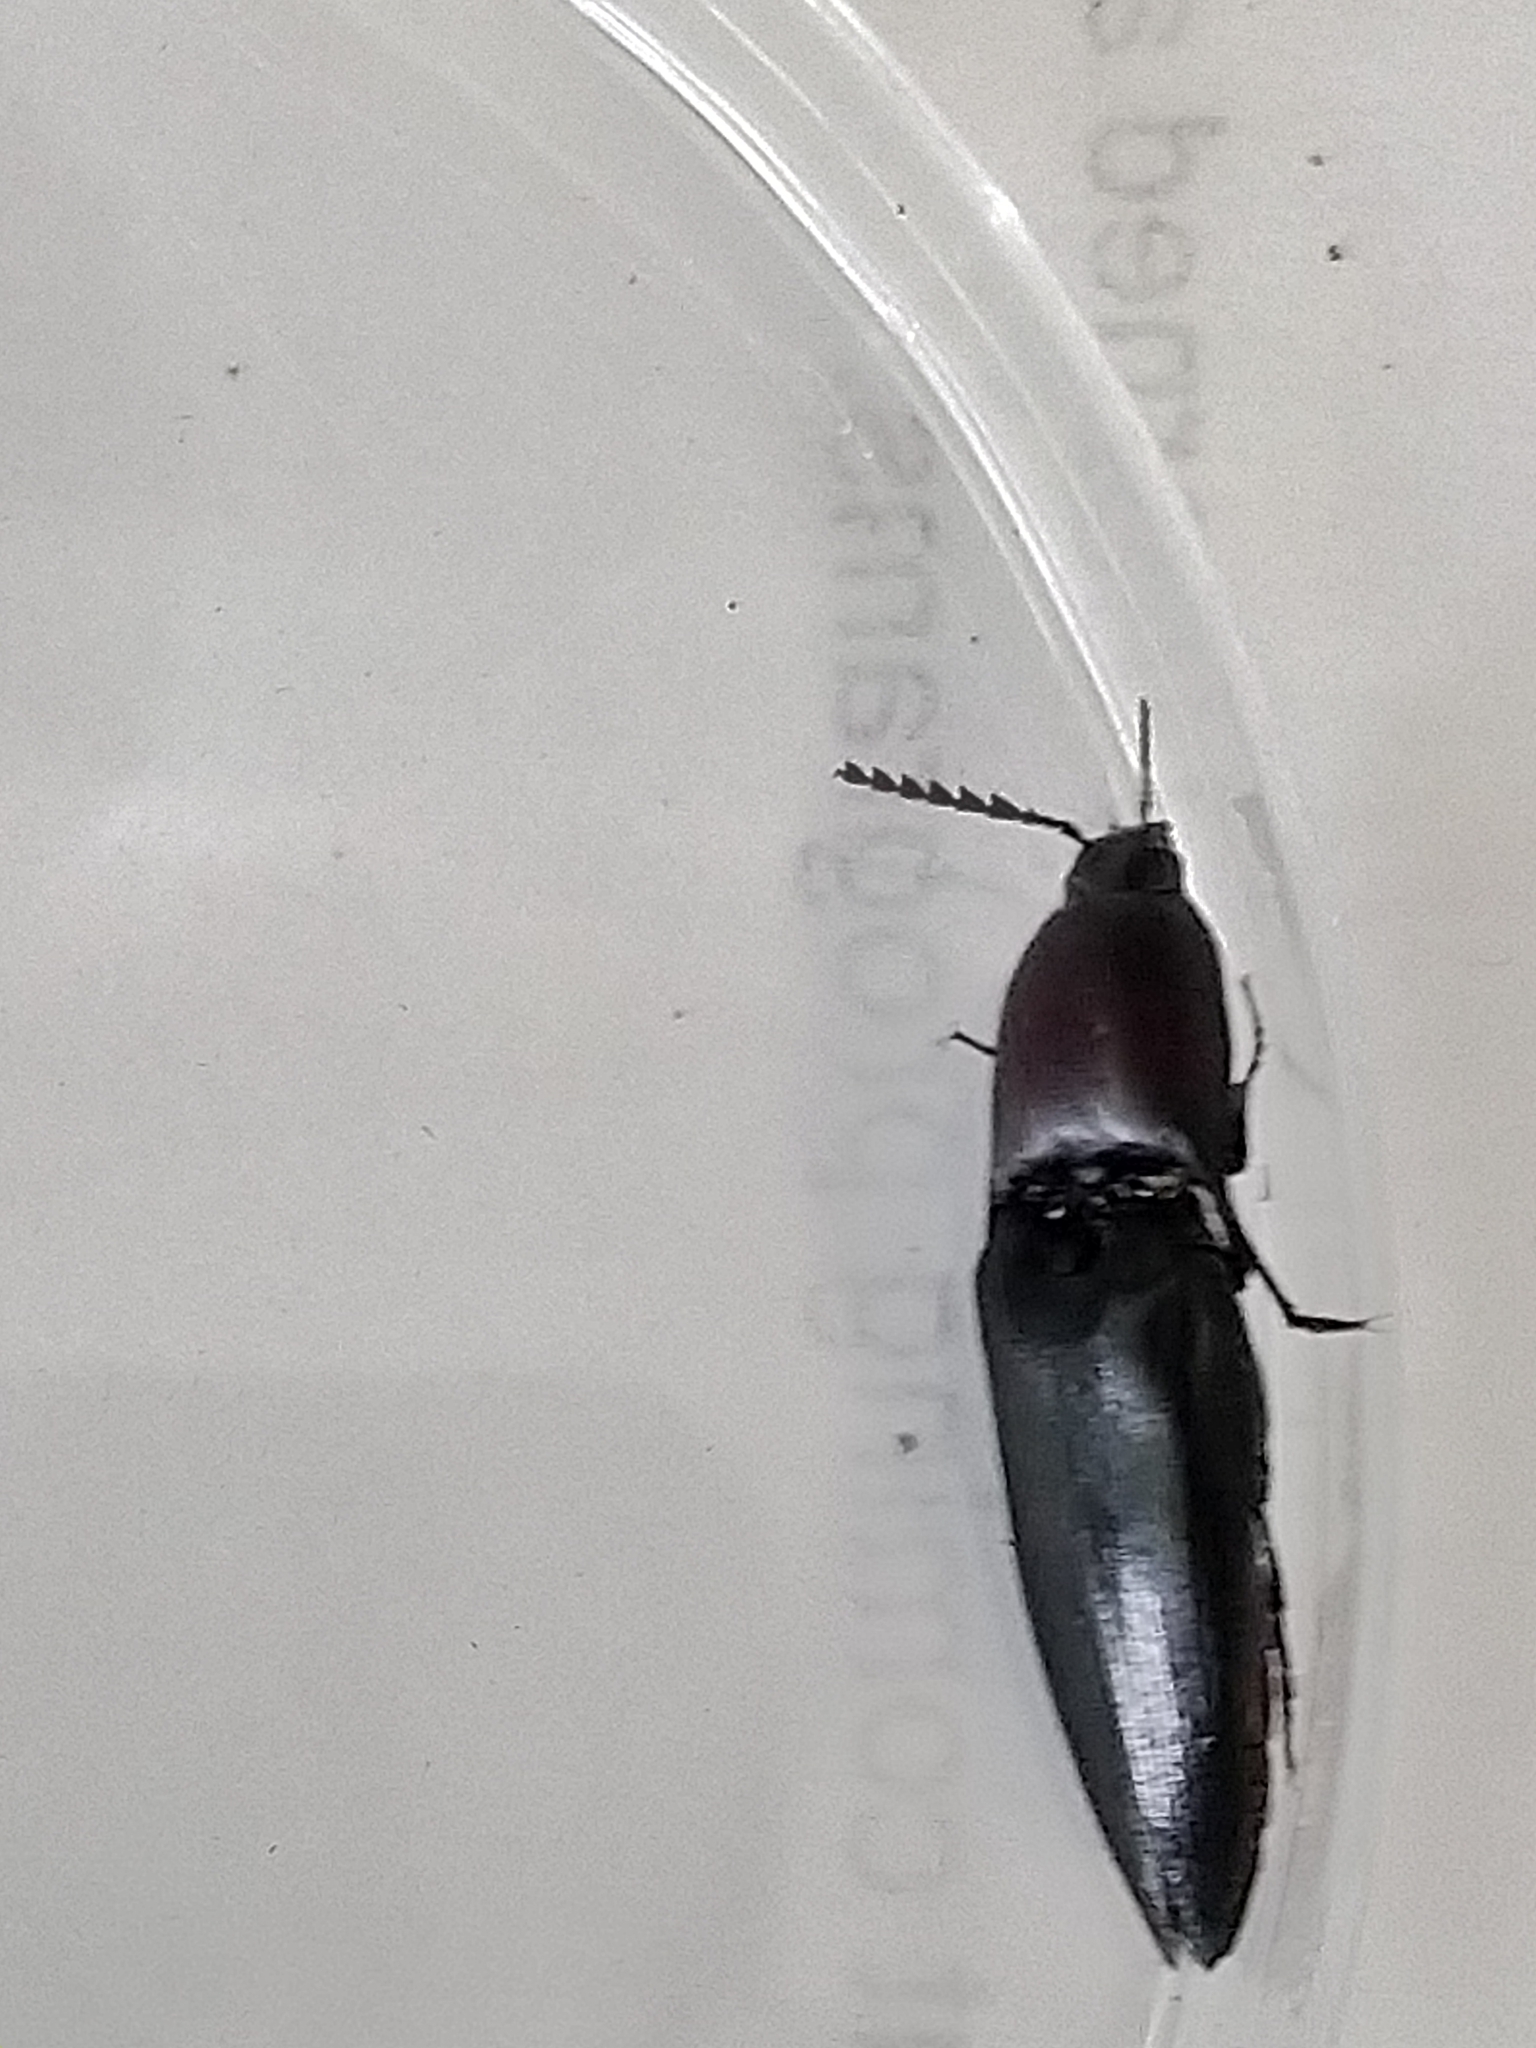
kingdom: Animalia
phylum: Arthropoda
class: Insecta
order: Coleoptera
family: Elateridae
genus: Parallelostethus
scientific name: Parallelostethus attenuatus
